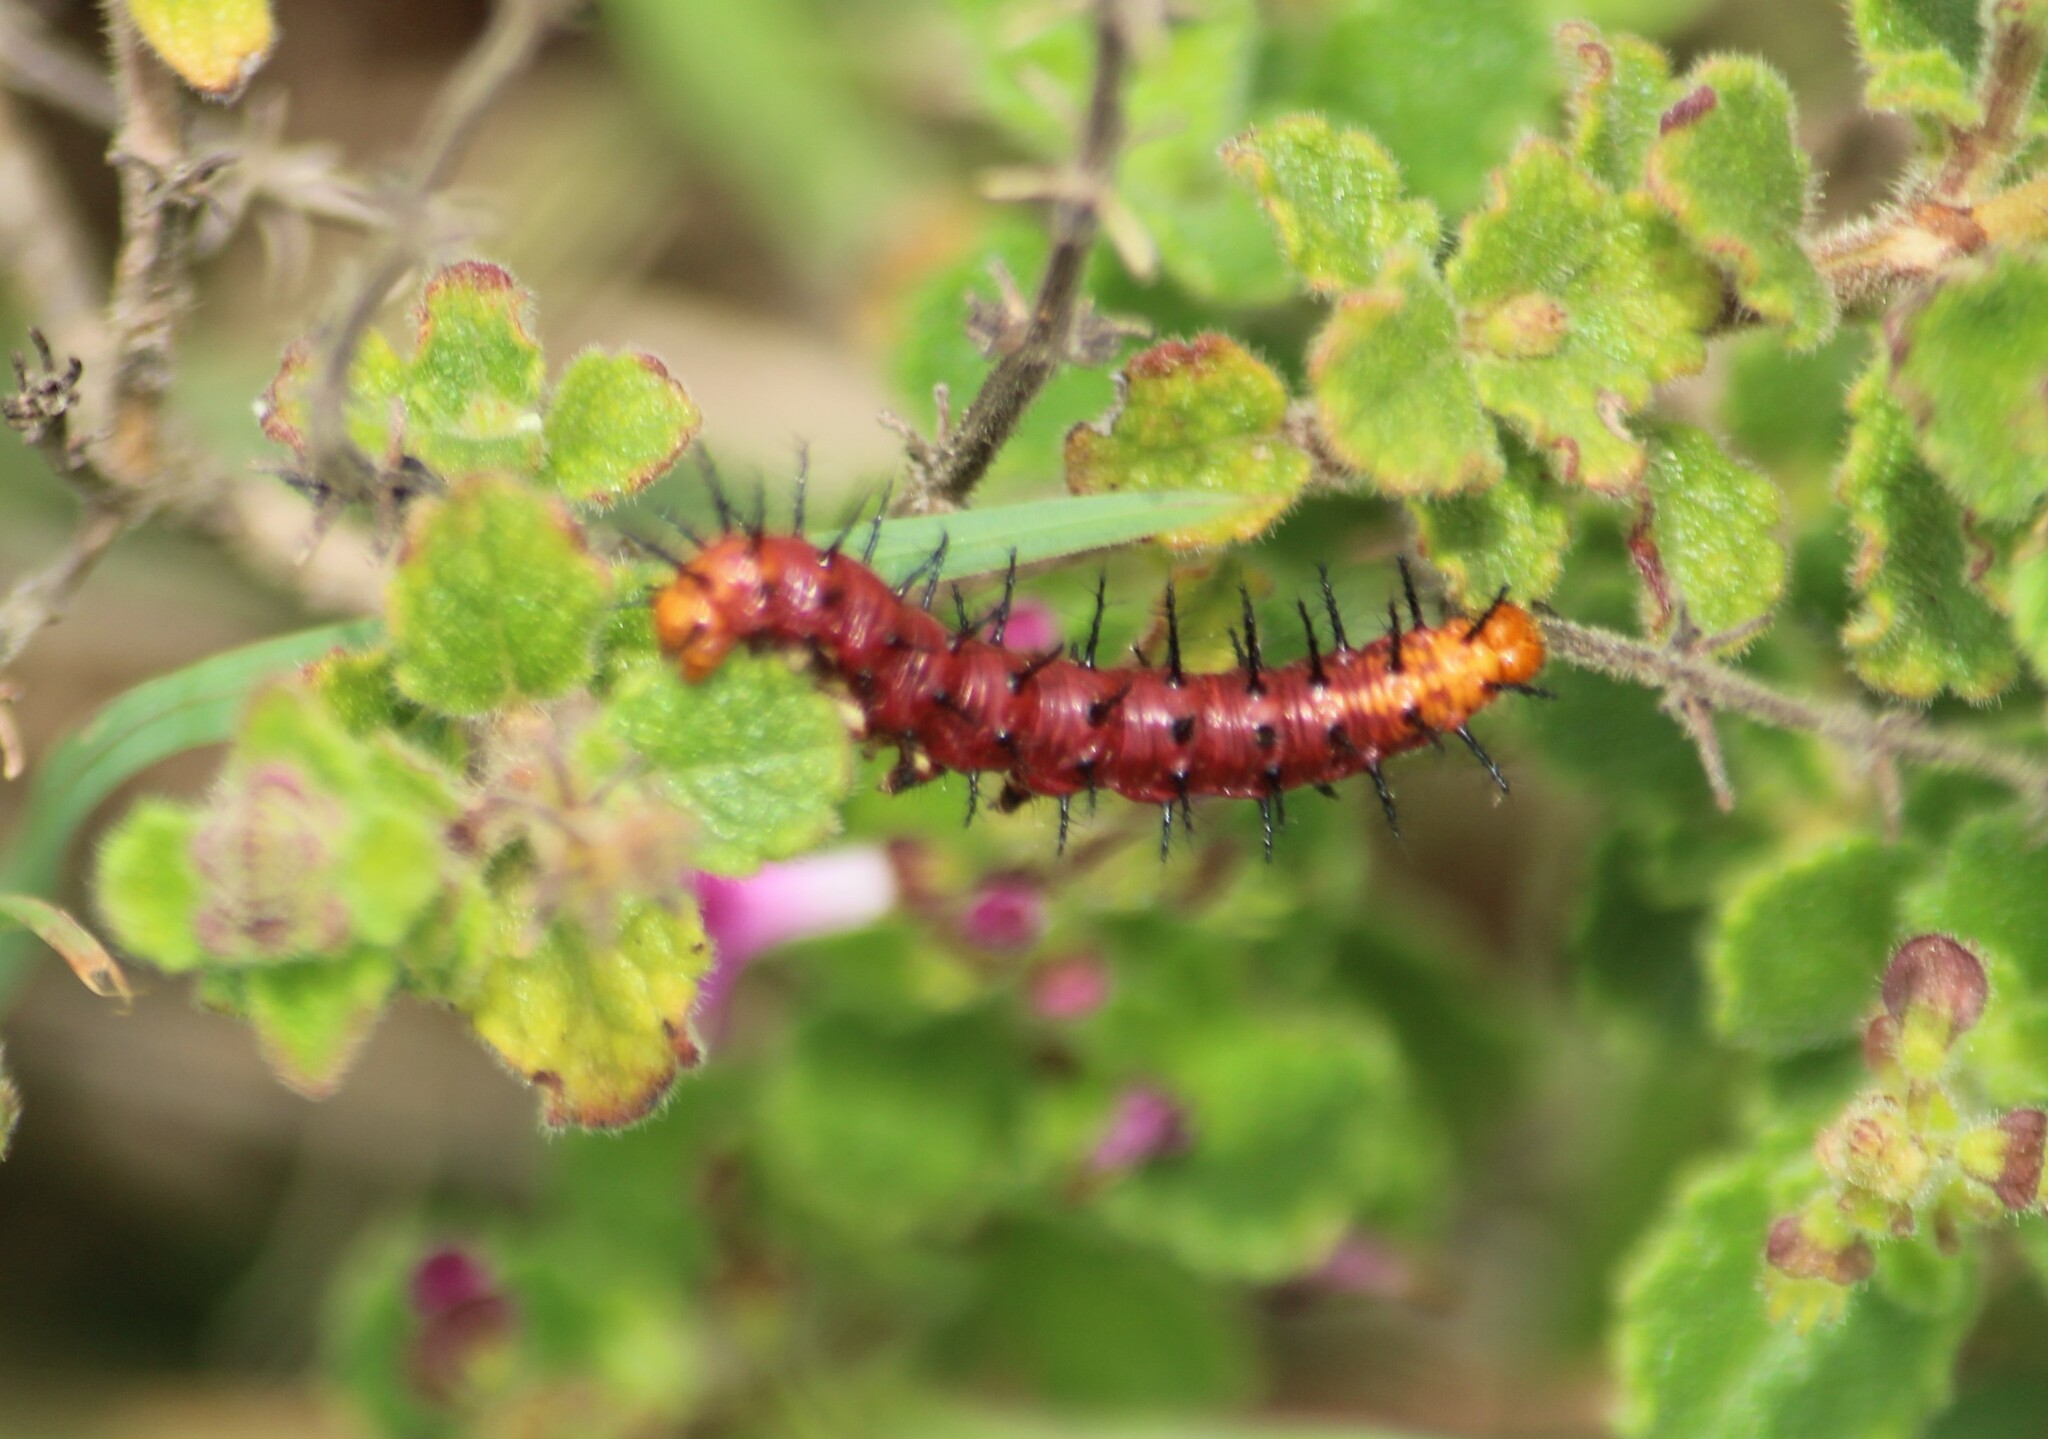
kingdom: Animalia
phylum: Arthropoda
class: Insecta
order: Lepidoptera
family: Nymphalidae
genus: Acraea
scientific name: Acraea terpsicore
